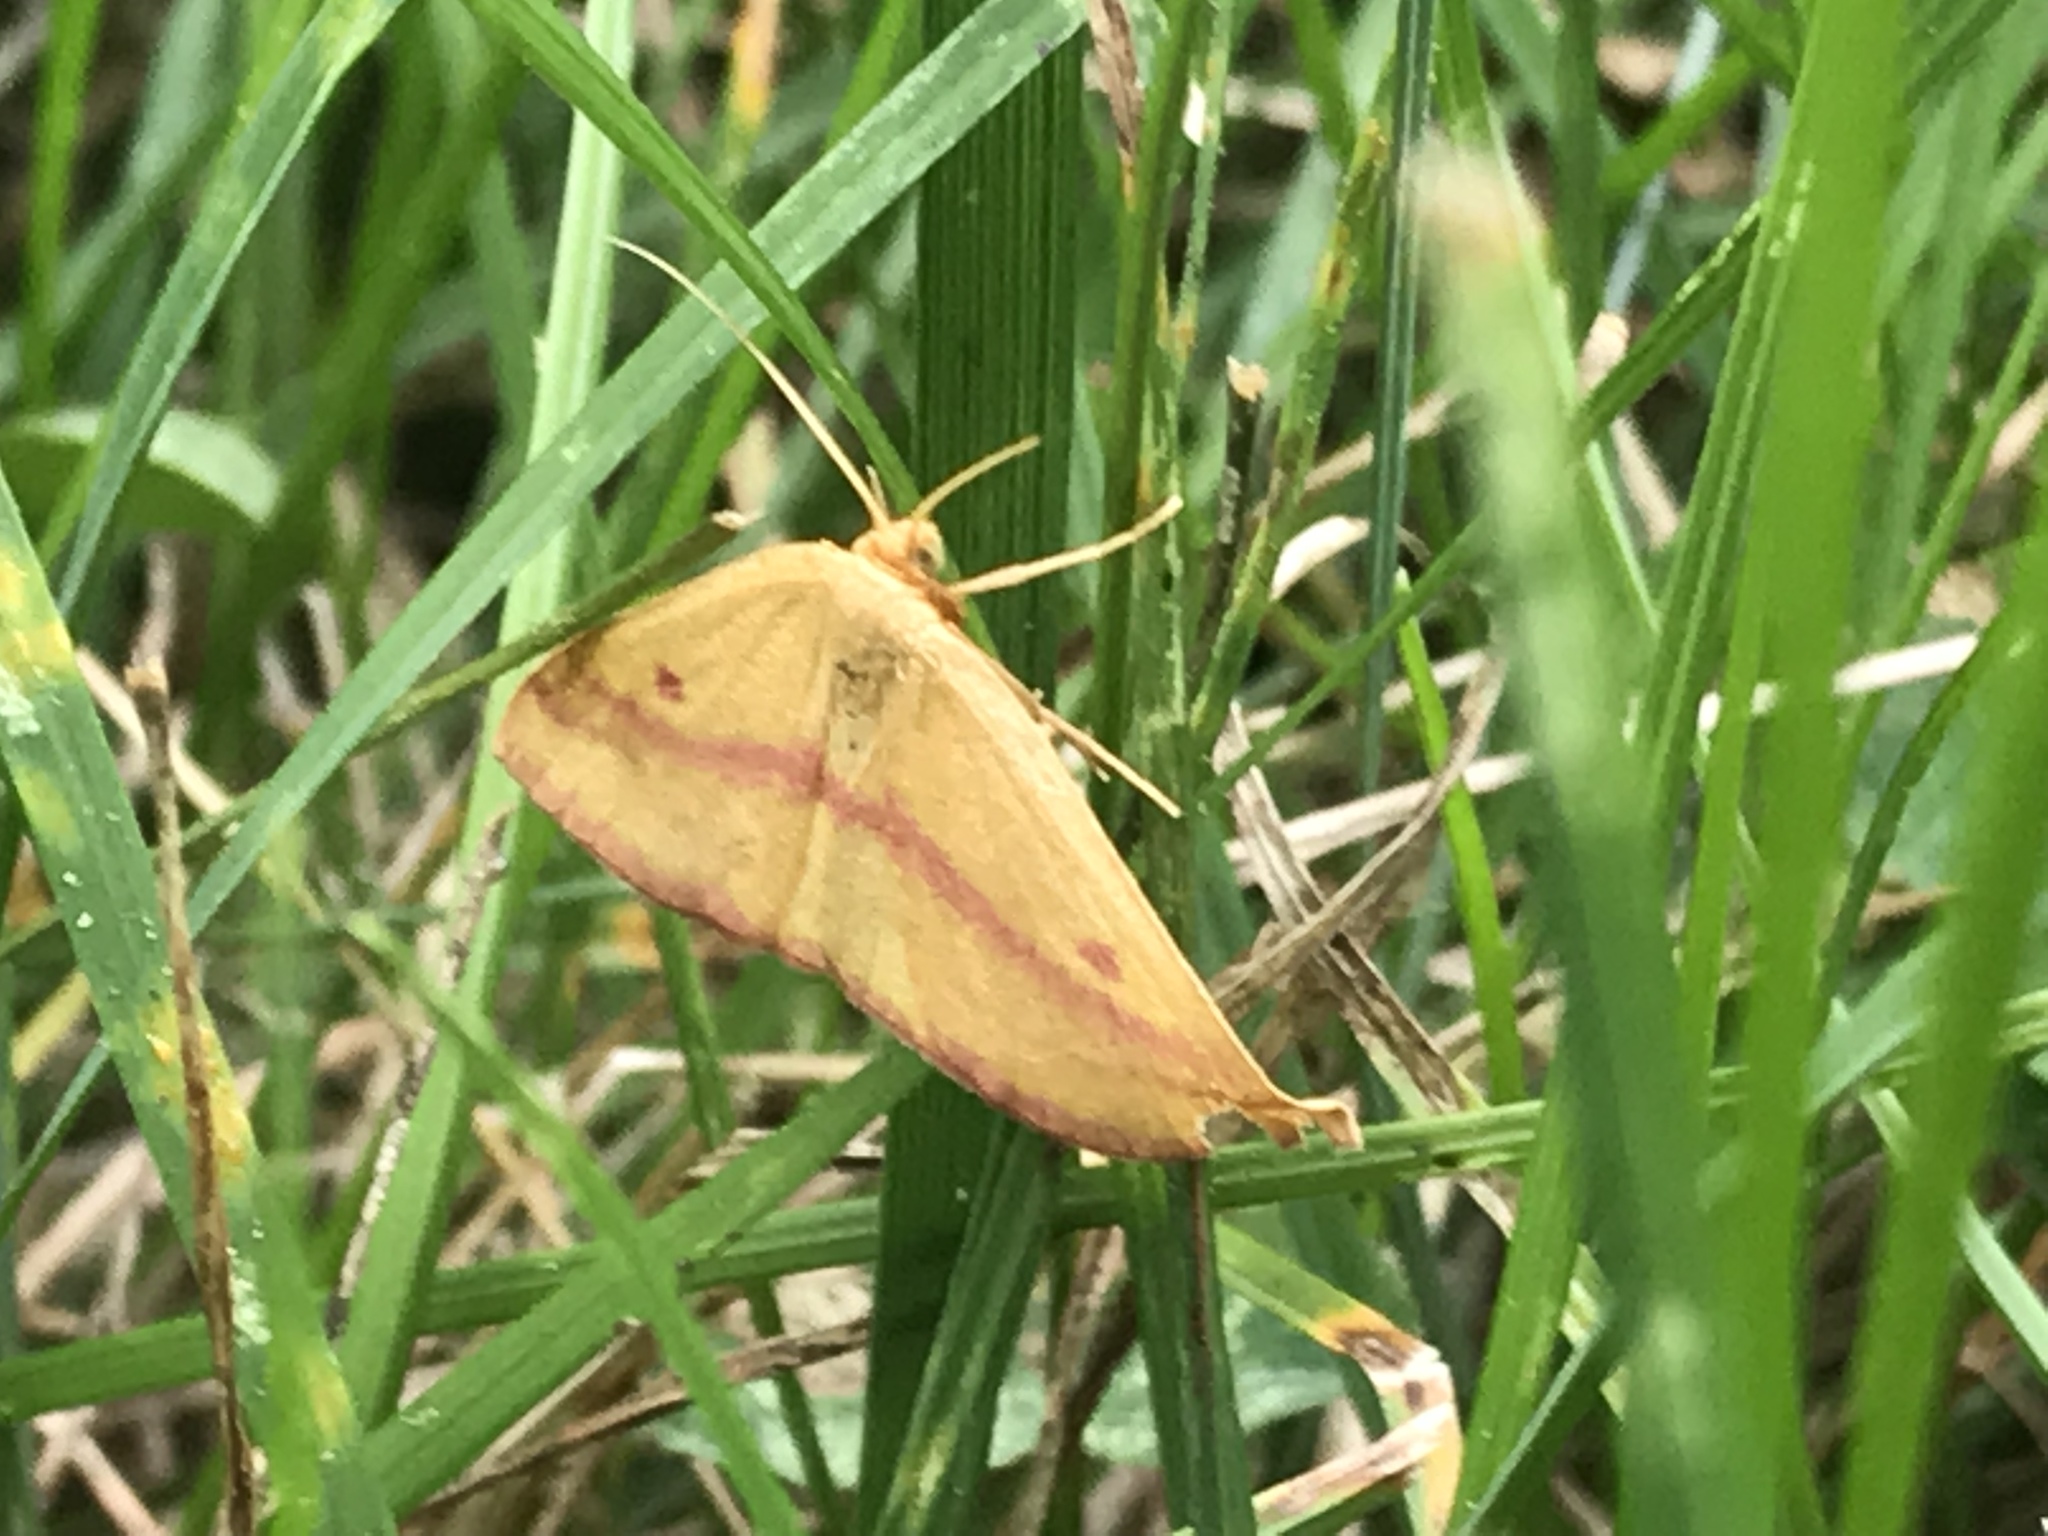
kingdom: Animalia
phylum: Arthropoda
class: Insecta
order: Lepidoptera
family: Geometridae
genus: Haematopis
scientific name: Haematopis grataria
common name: Chickweed geometer
